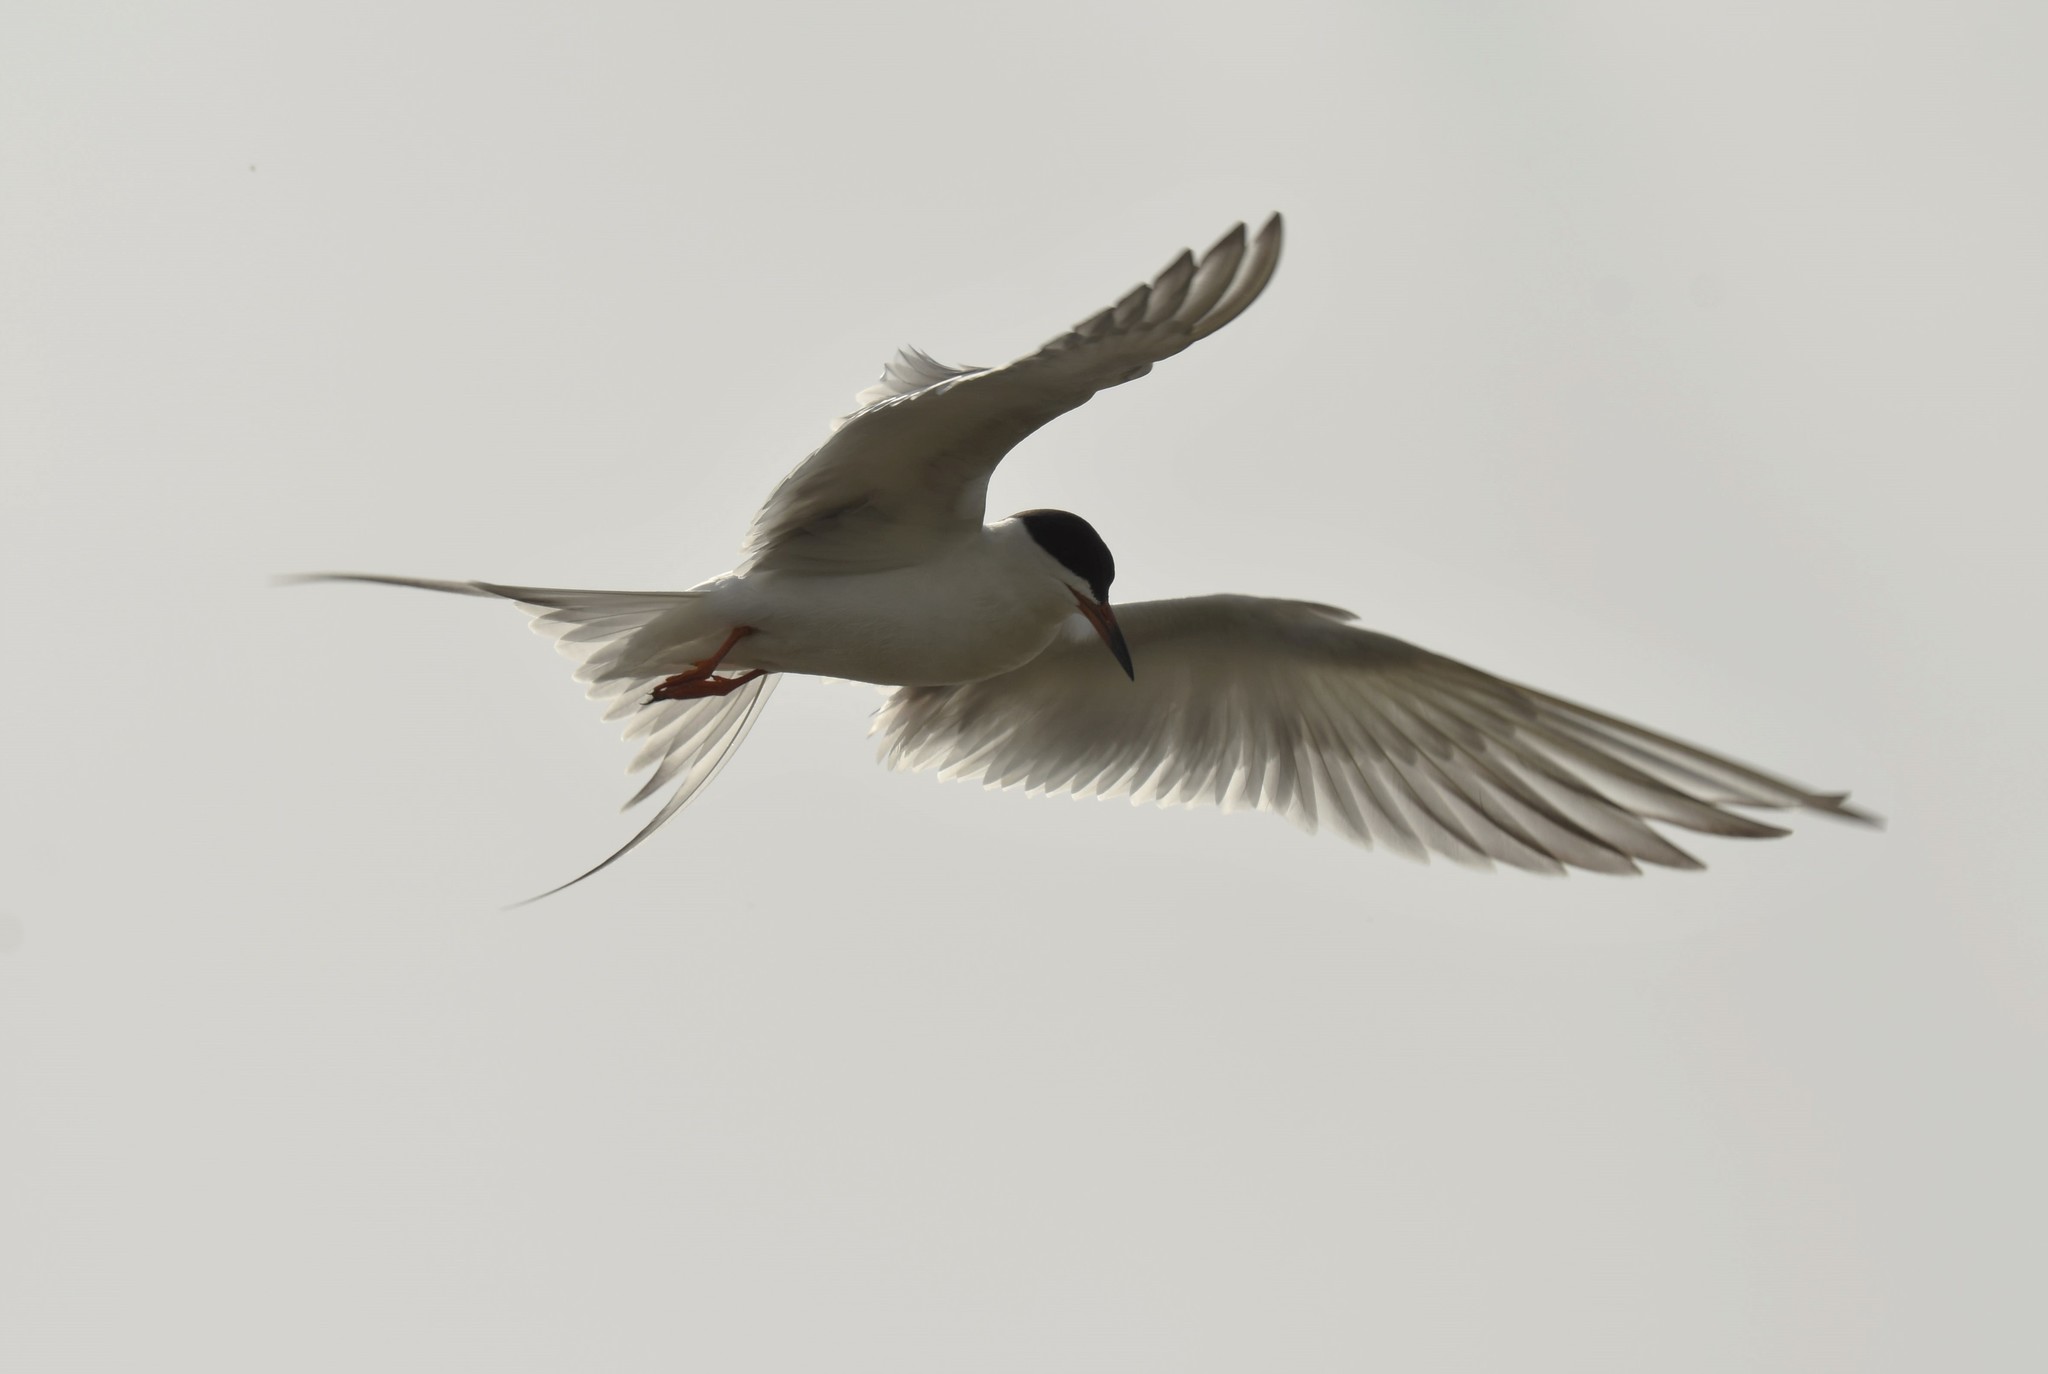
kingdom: Animalia
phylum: Chordata
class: Aves
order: Charadriiformes
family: Laridae
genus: Sterna
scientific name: Sterna forsteri
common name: Forster's tern
